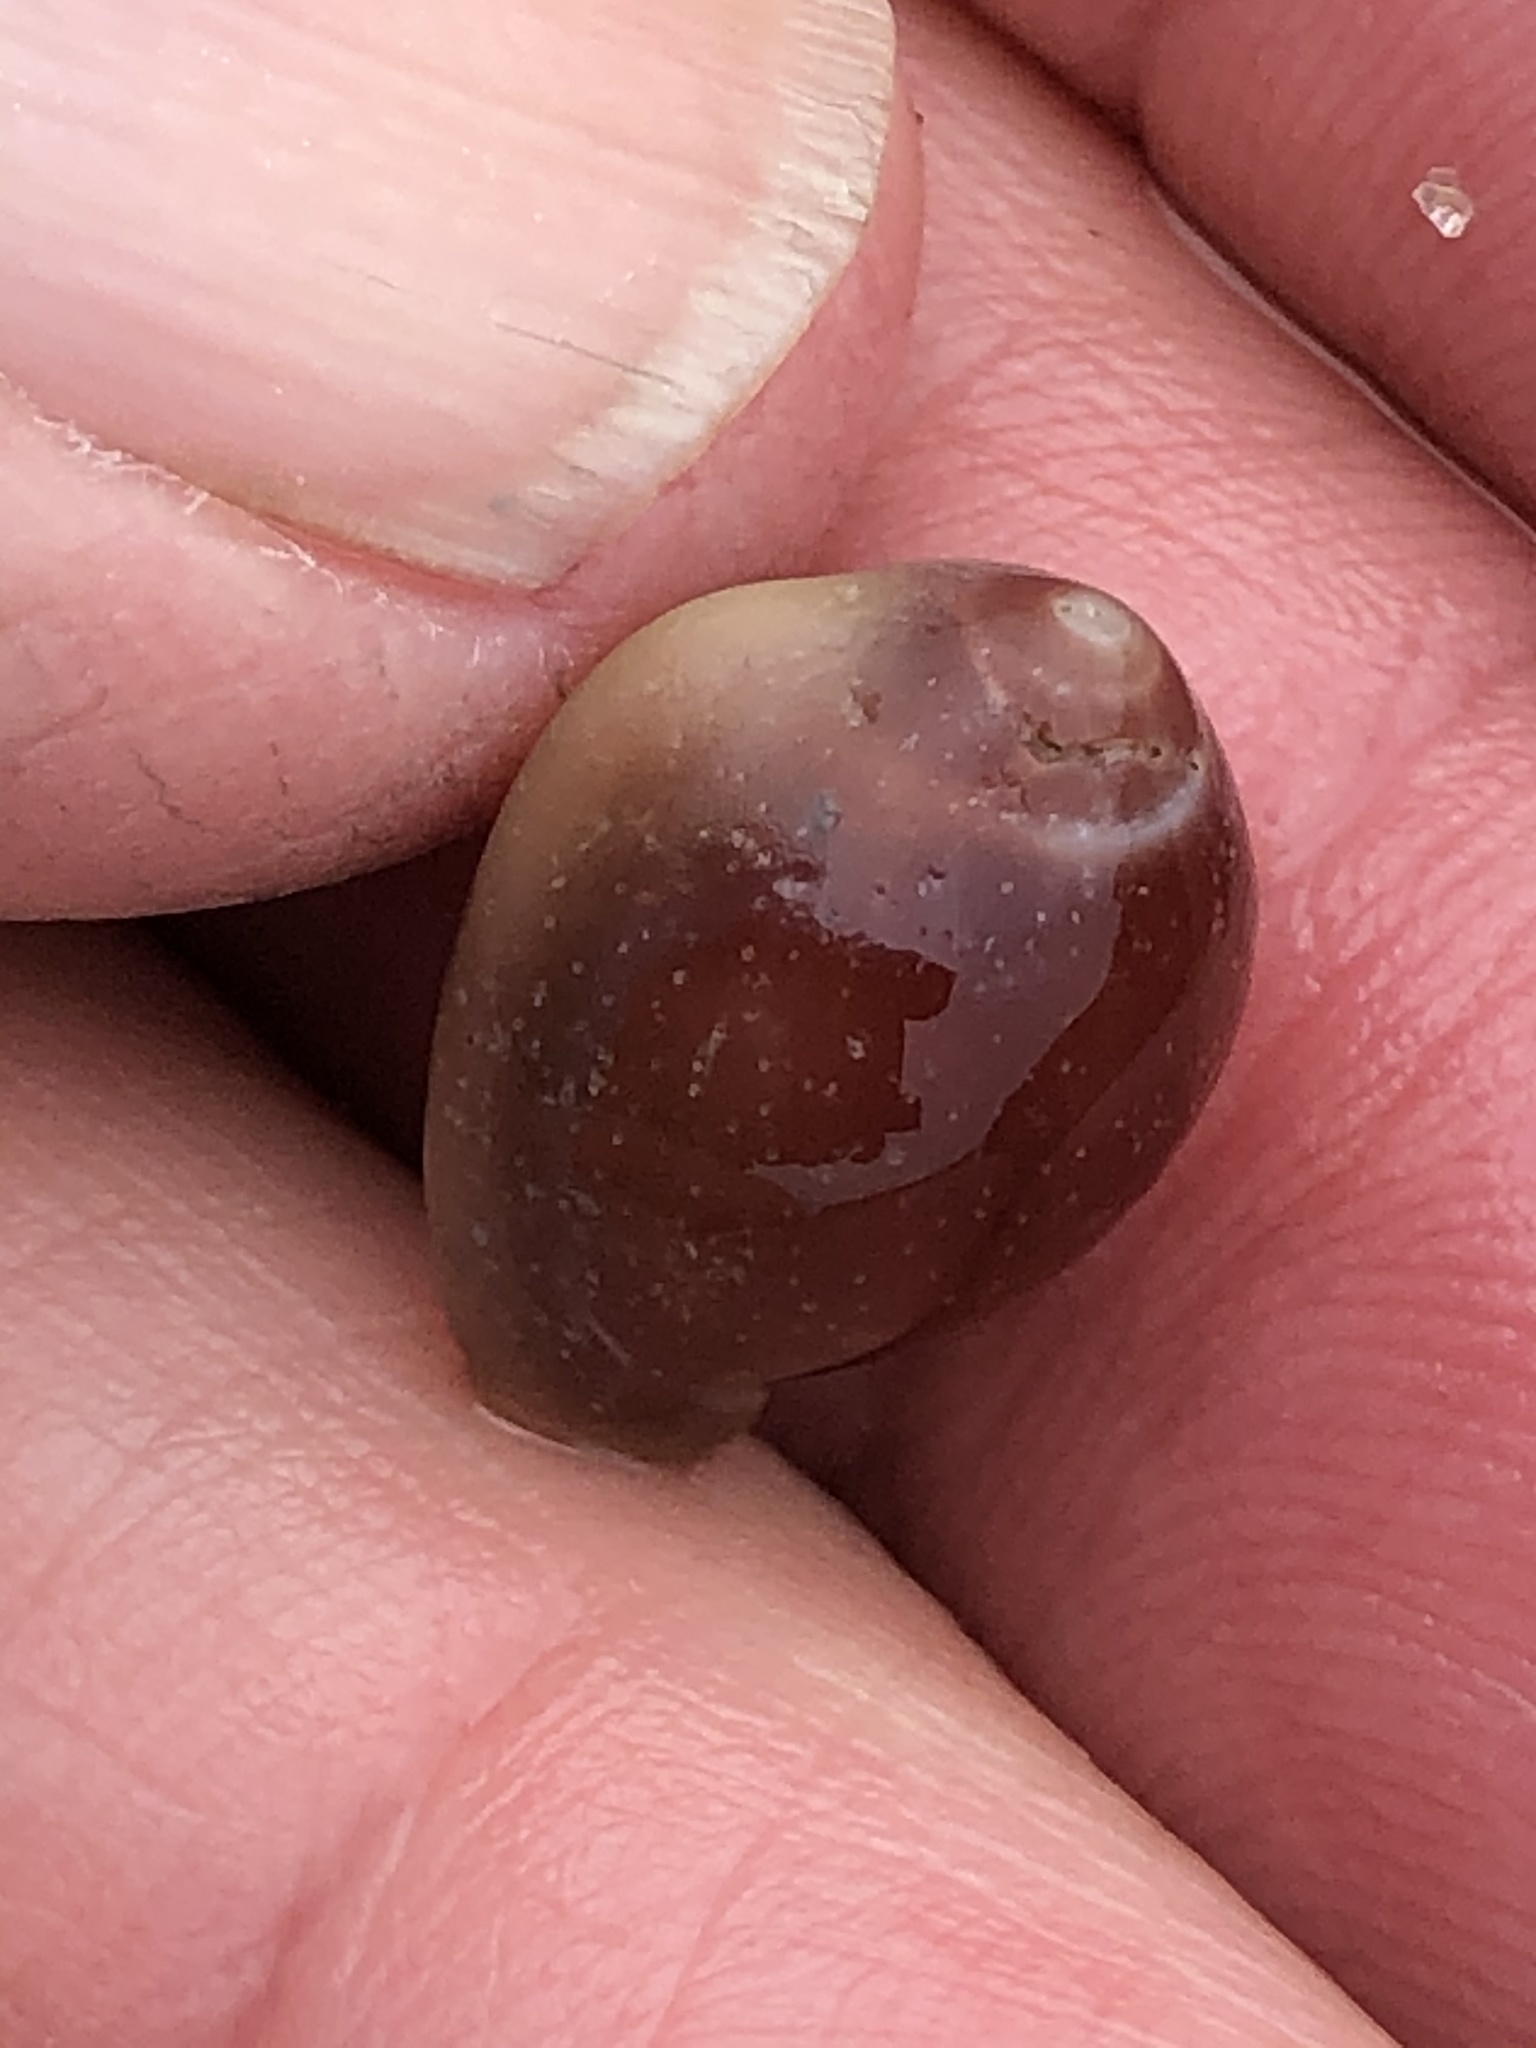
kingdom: Animalia
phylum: Mollusca
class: Gastropoda
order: Littorinimorpha
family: Eratoidae
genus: Hespererato
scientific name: Hespererato vitellina
